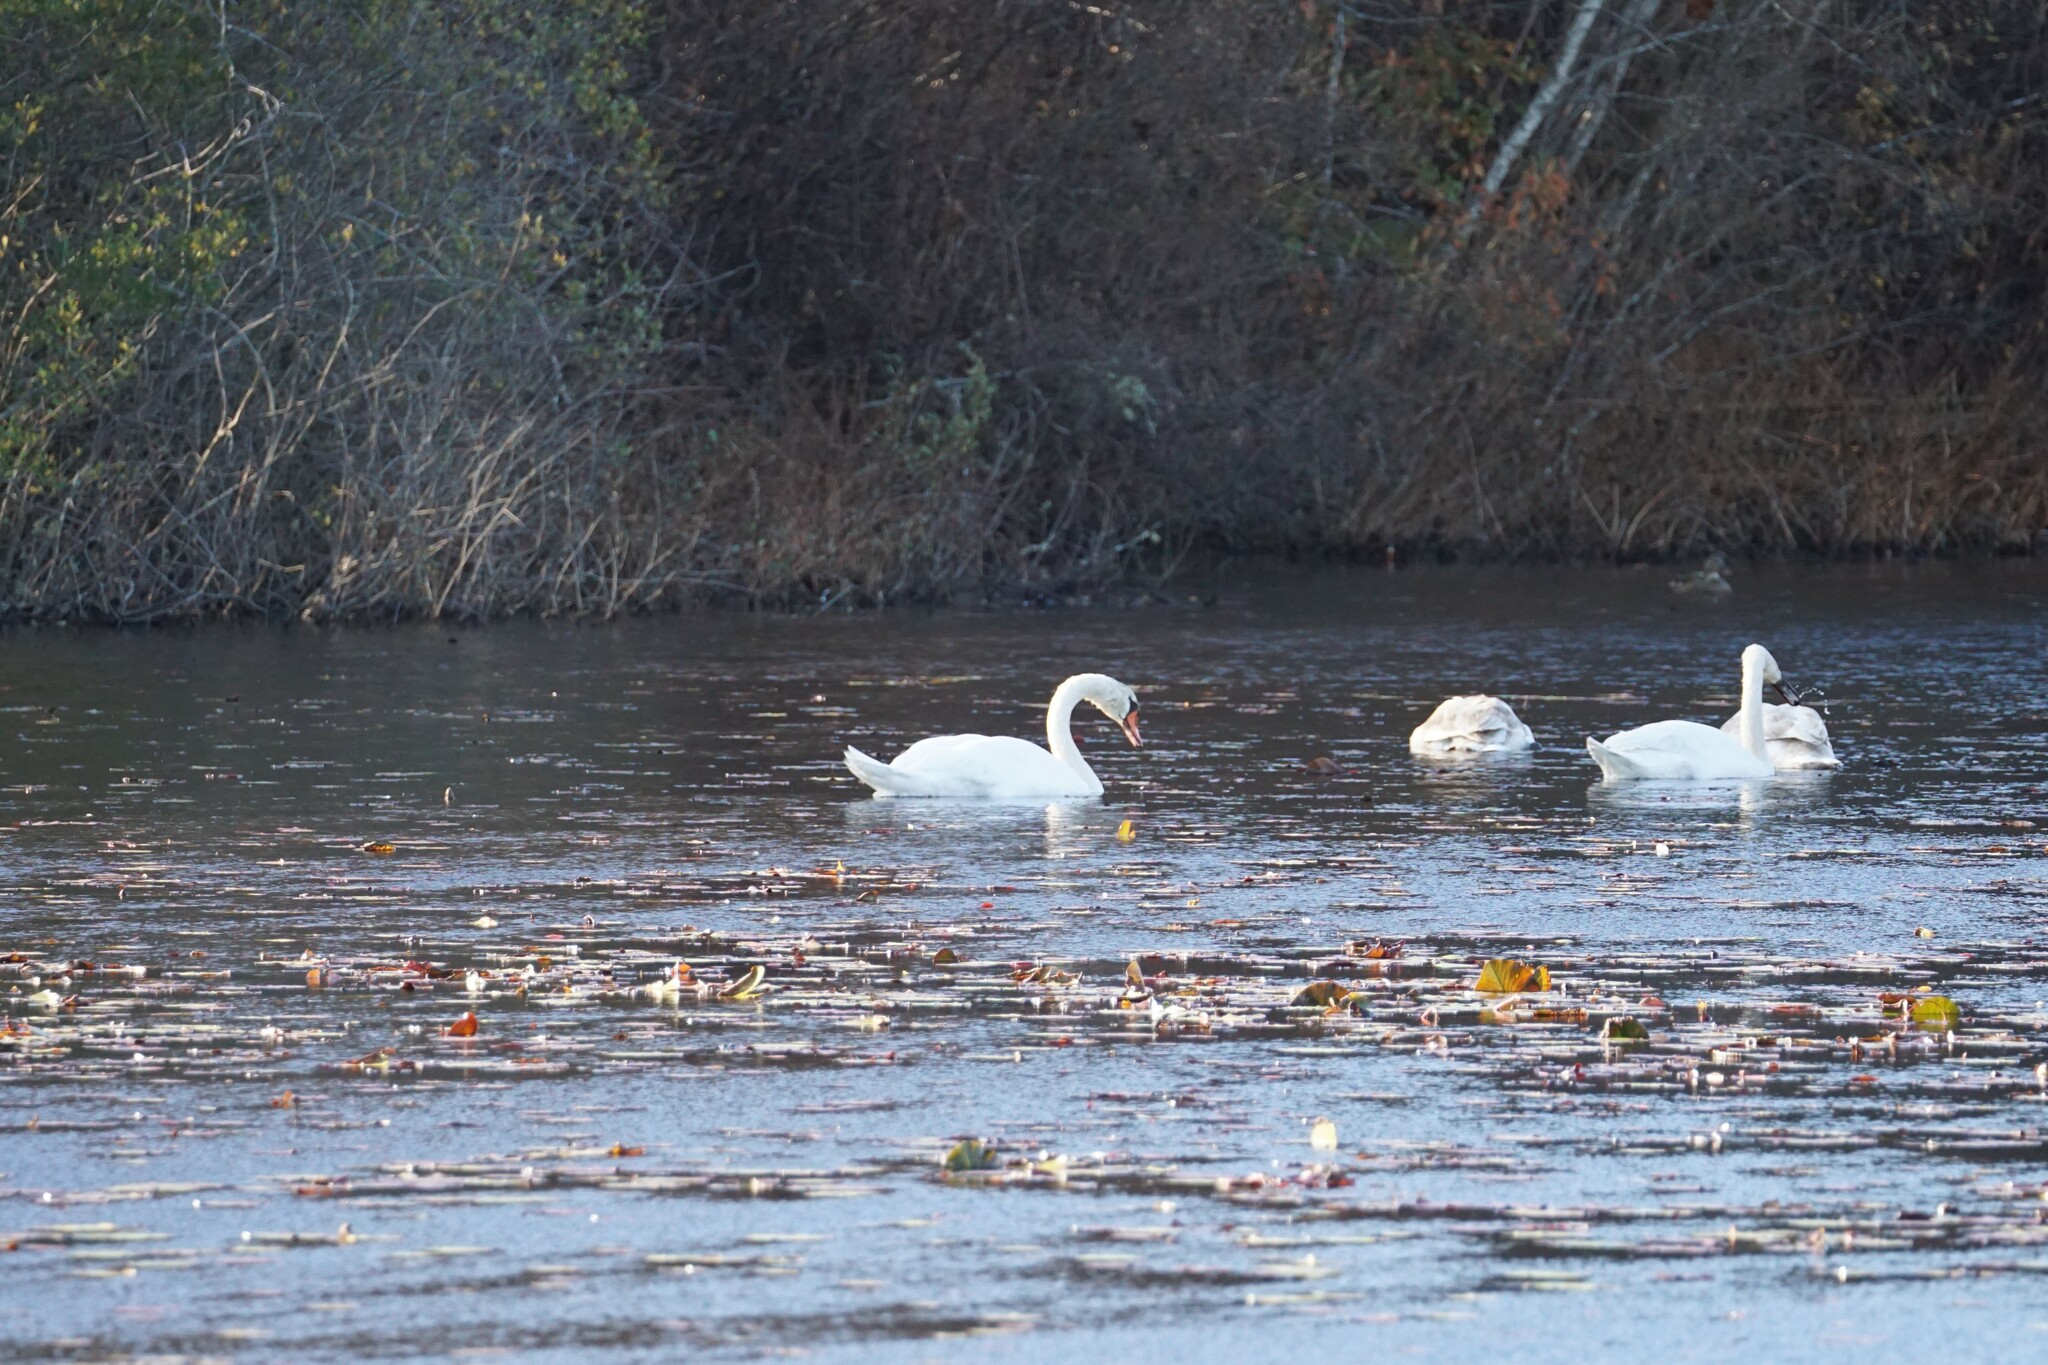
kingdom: Animalia
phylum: Chordata
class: Aves
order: Anseriformes
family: Anatidae
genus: Cygnus
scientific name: Cygnus olor
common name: Mute swan
